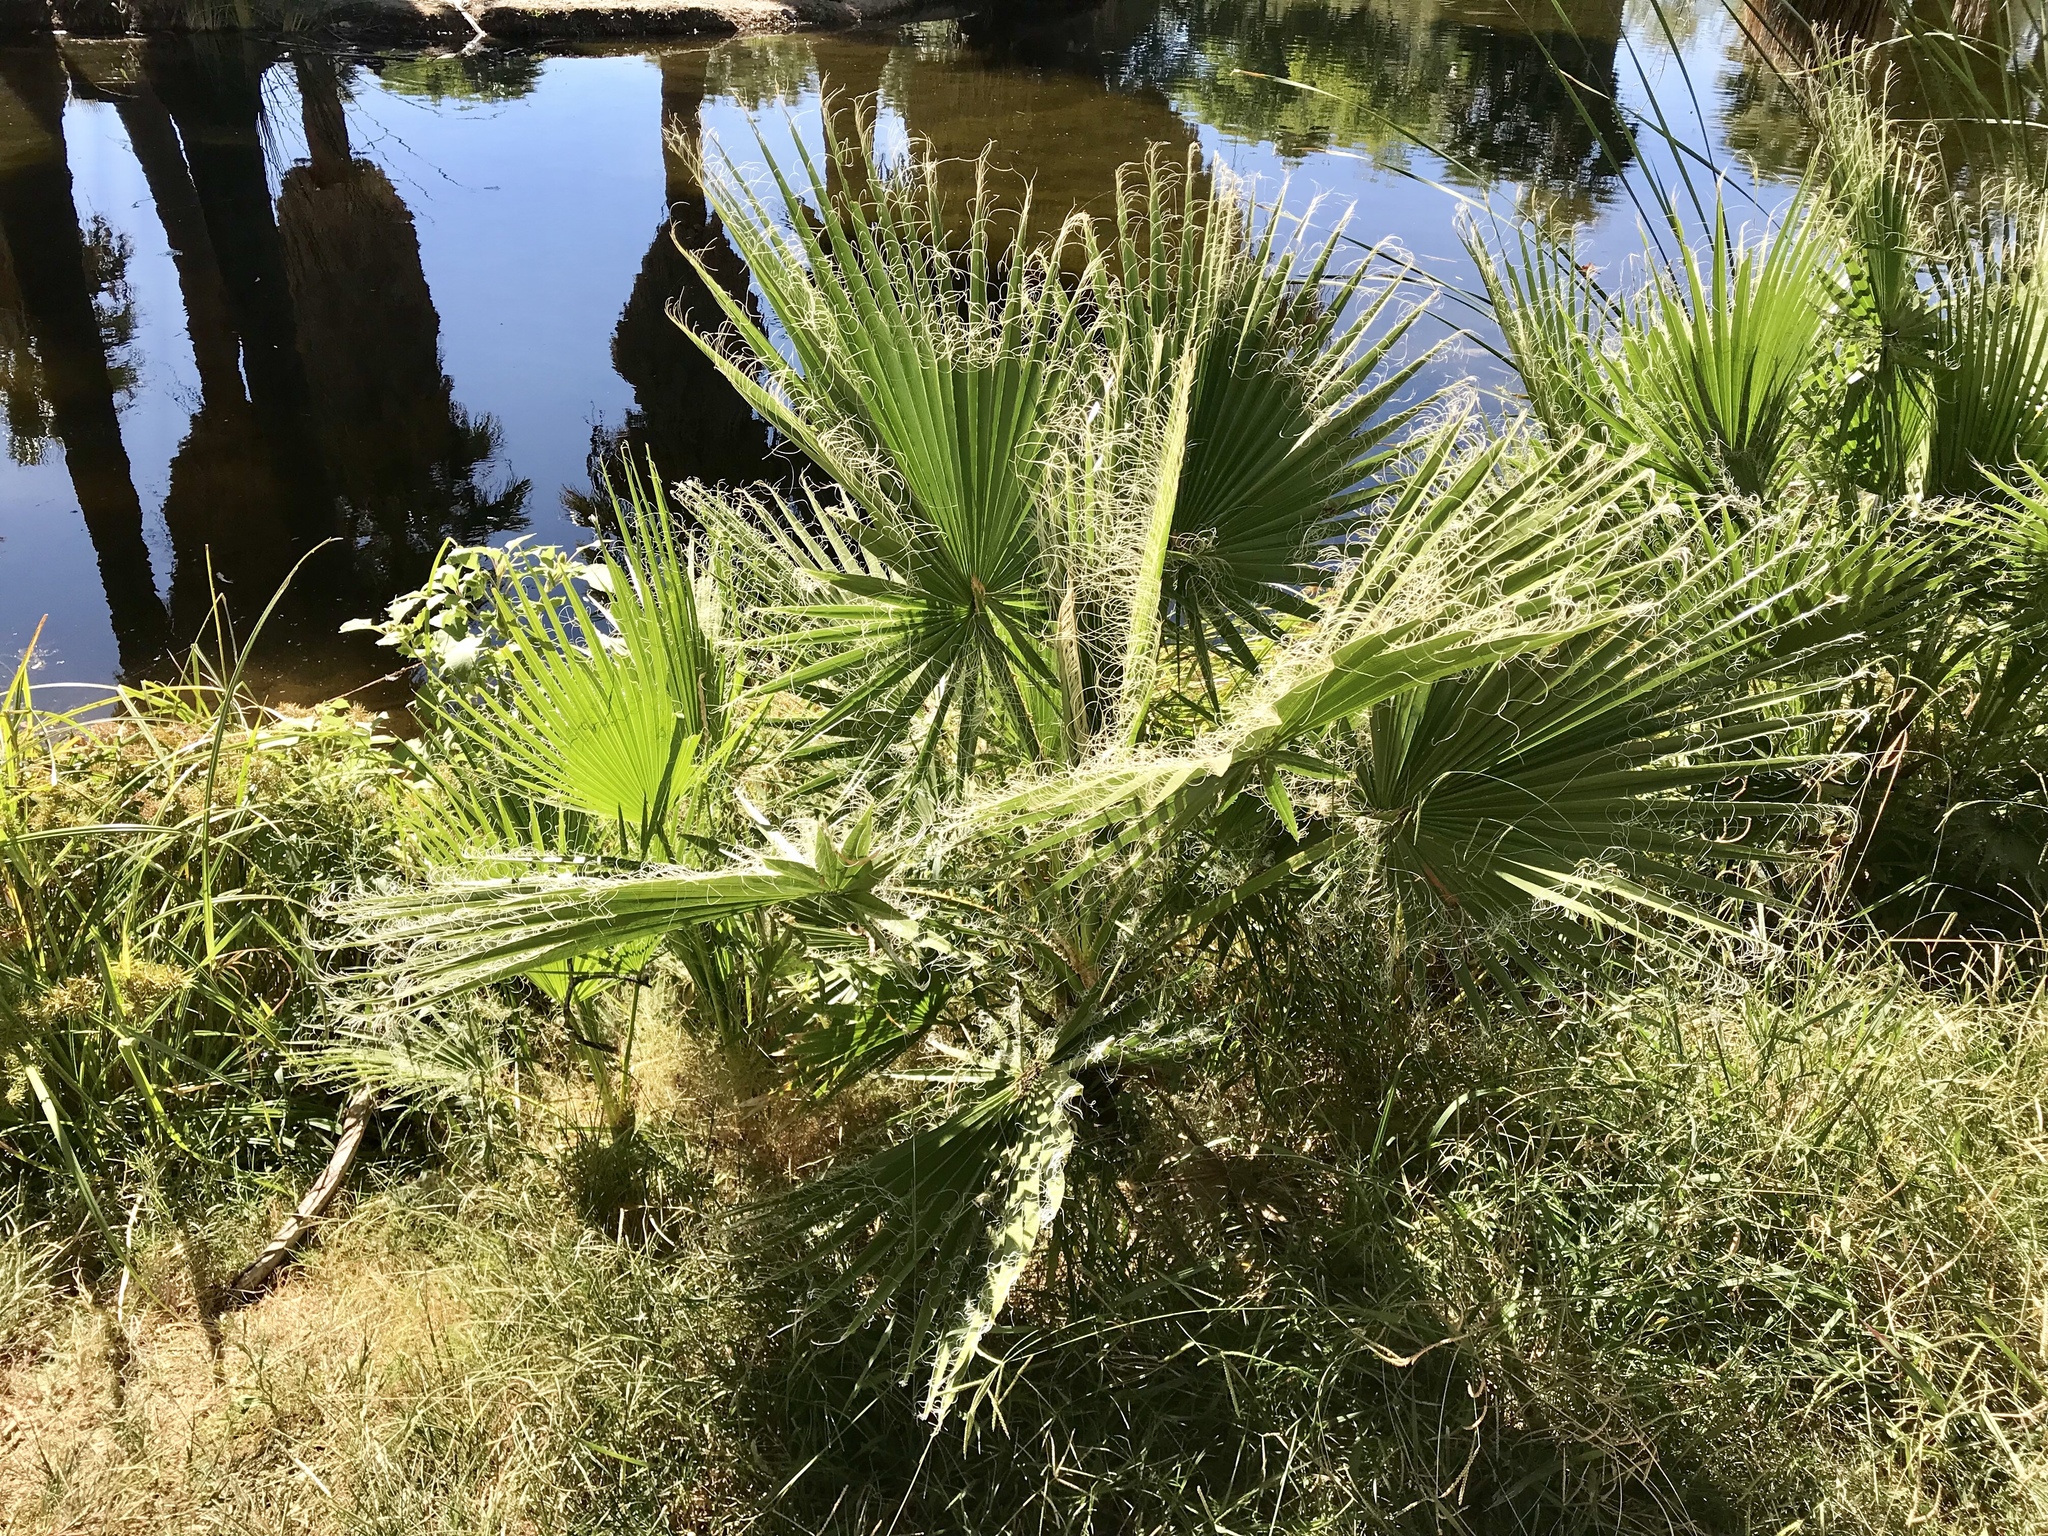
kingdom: Plantae
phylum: Tracheophyta
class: Liliopsida
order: Arecales
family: Arecaceae
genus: Washingtonia
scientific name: Washingtonia filifera
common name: California fan palm
